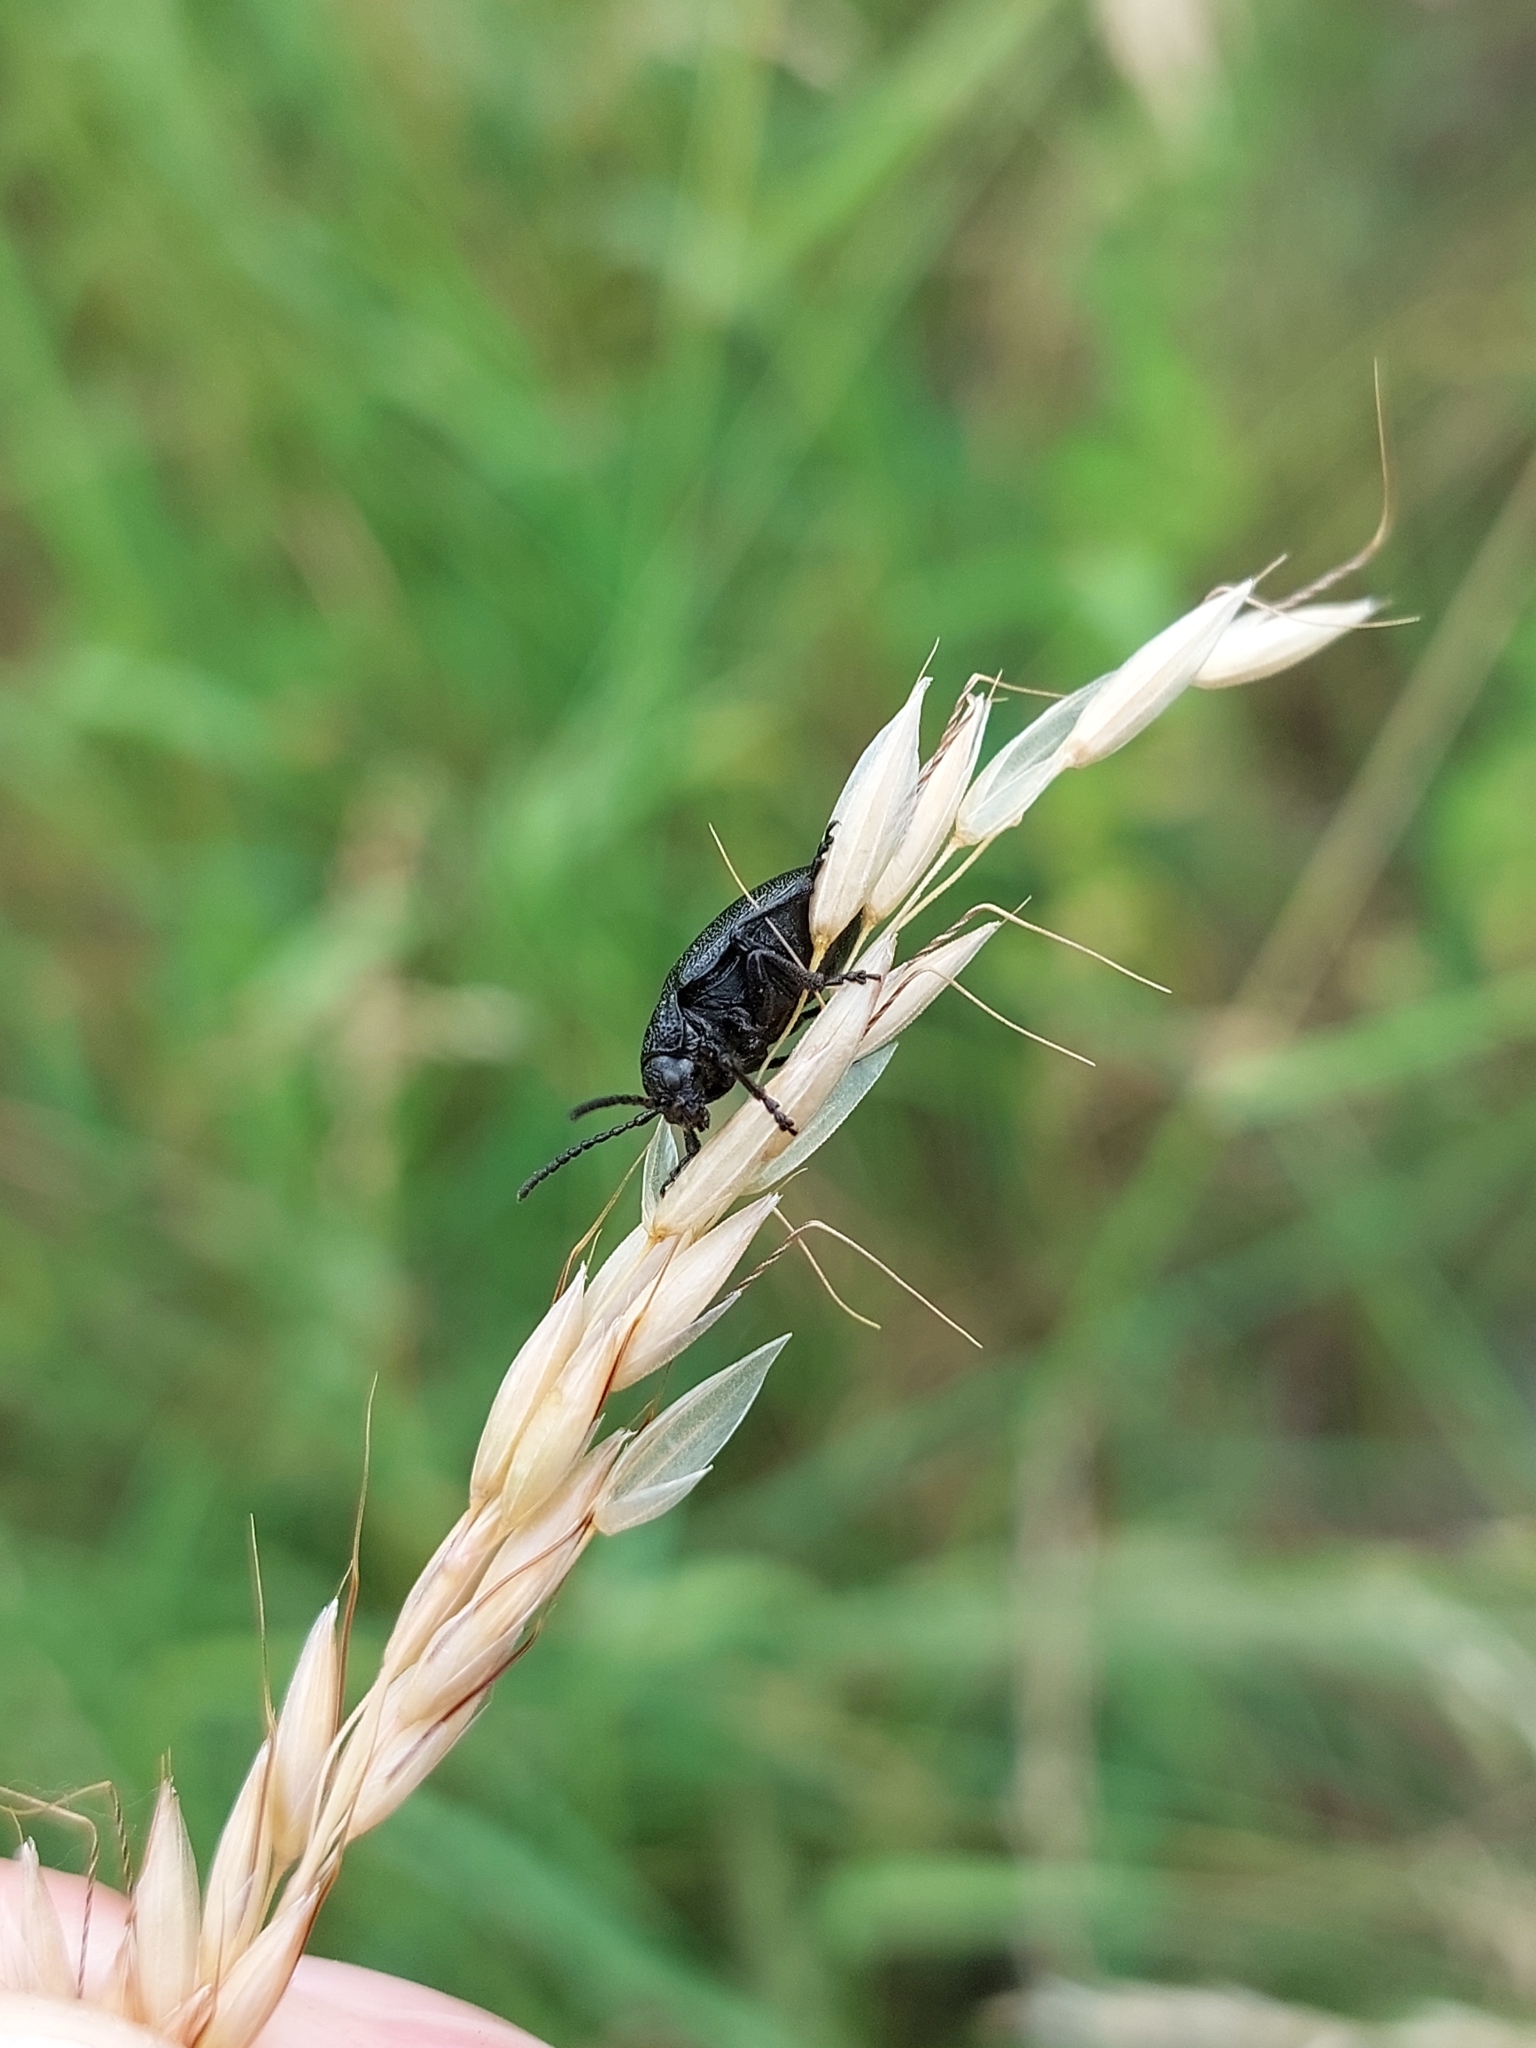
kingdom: Animalia
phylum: Arthropoda
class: Insecta
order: Coleoptera
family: Chrysomelidae
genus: Galeruca
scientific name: Galeruca tanaceti
